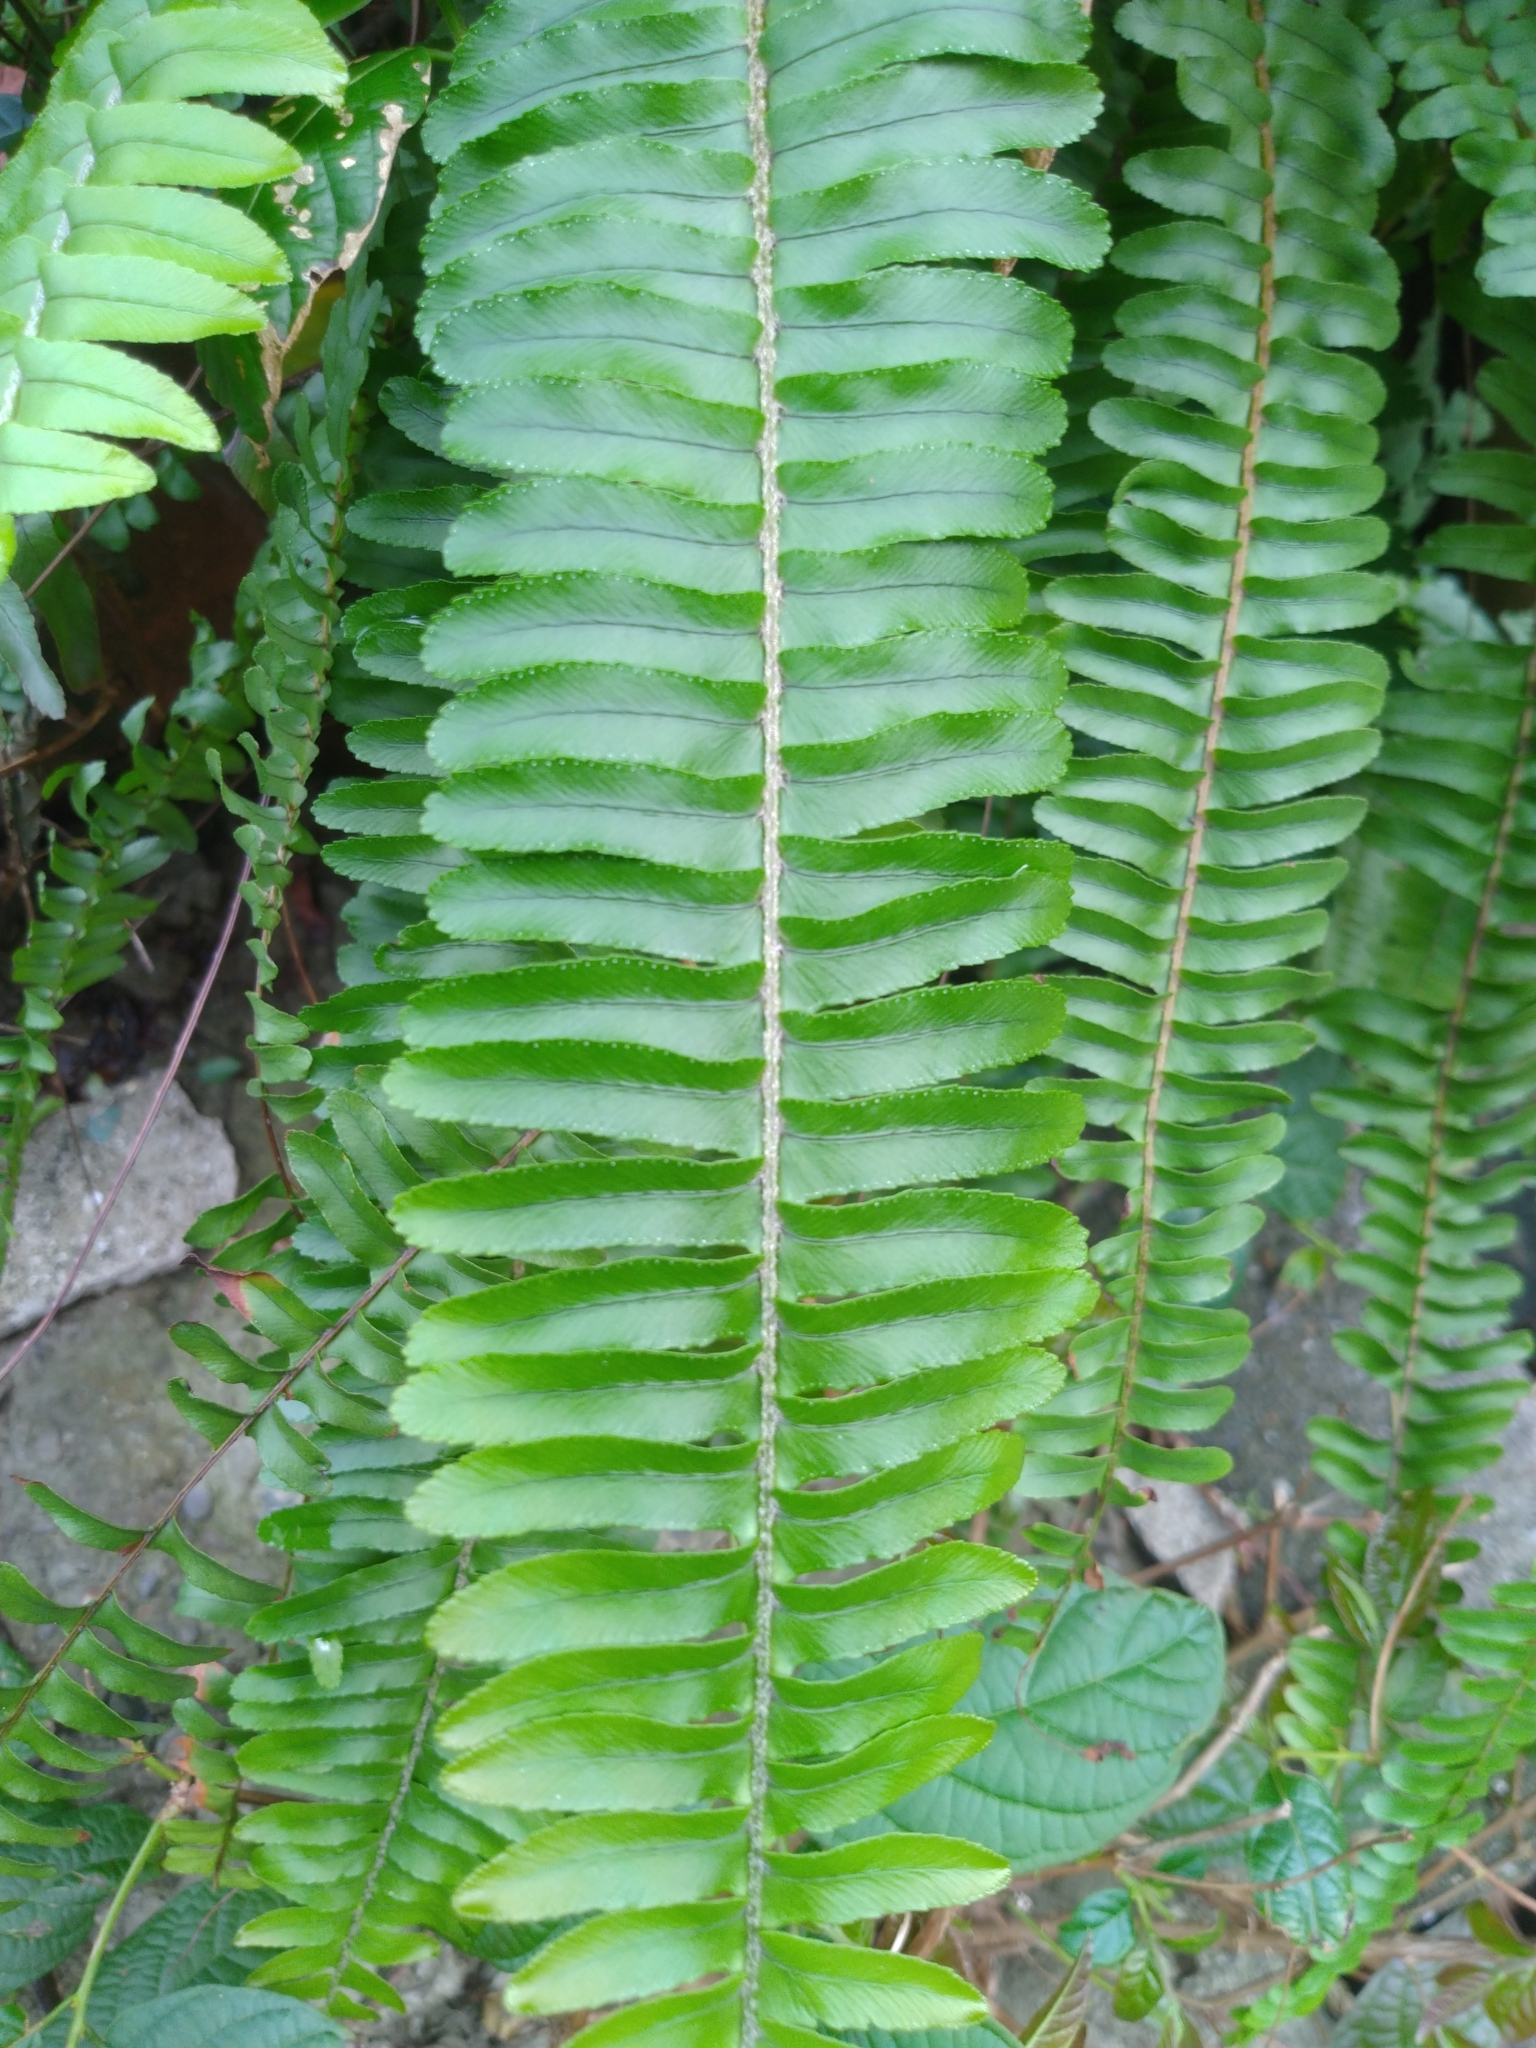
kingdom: Plantae
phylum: Tracheophyta
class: Polypodiopsida
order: Polypodiales
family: Nephrolepidaceae
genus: Nephrolepis
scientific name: Nephrolepis cordifolia
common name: Narrow swordfern
